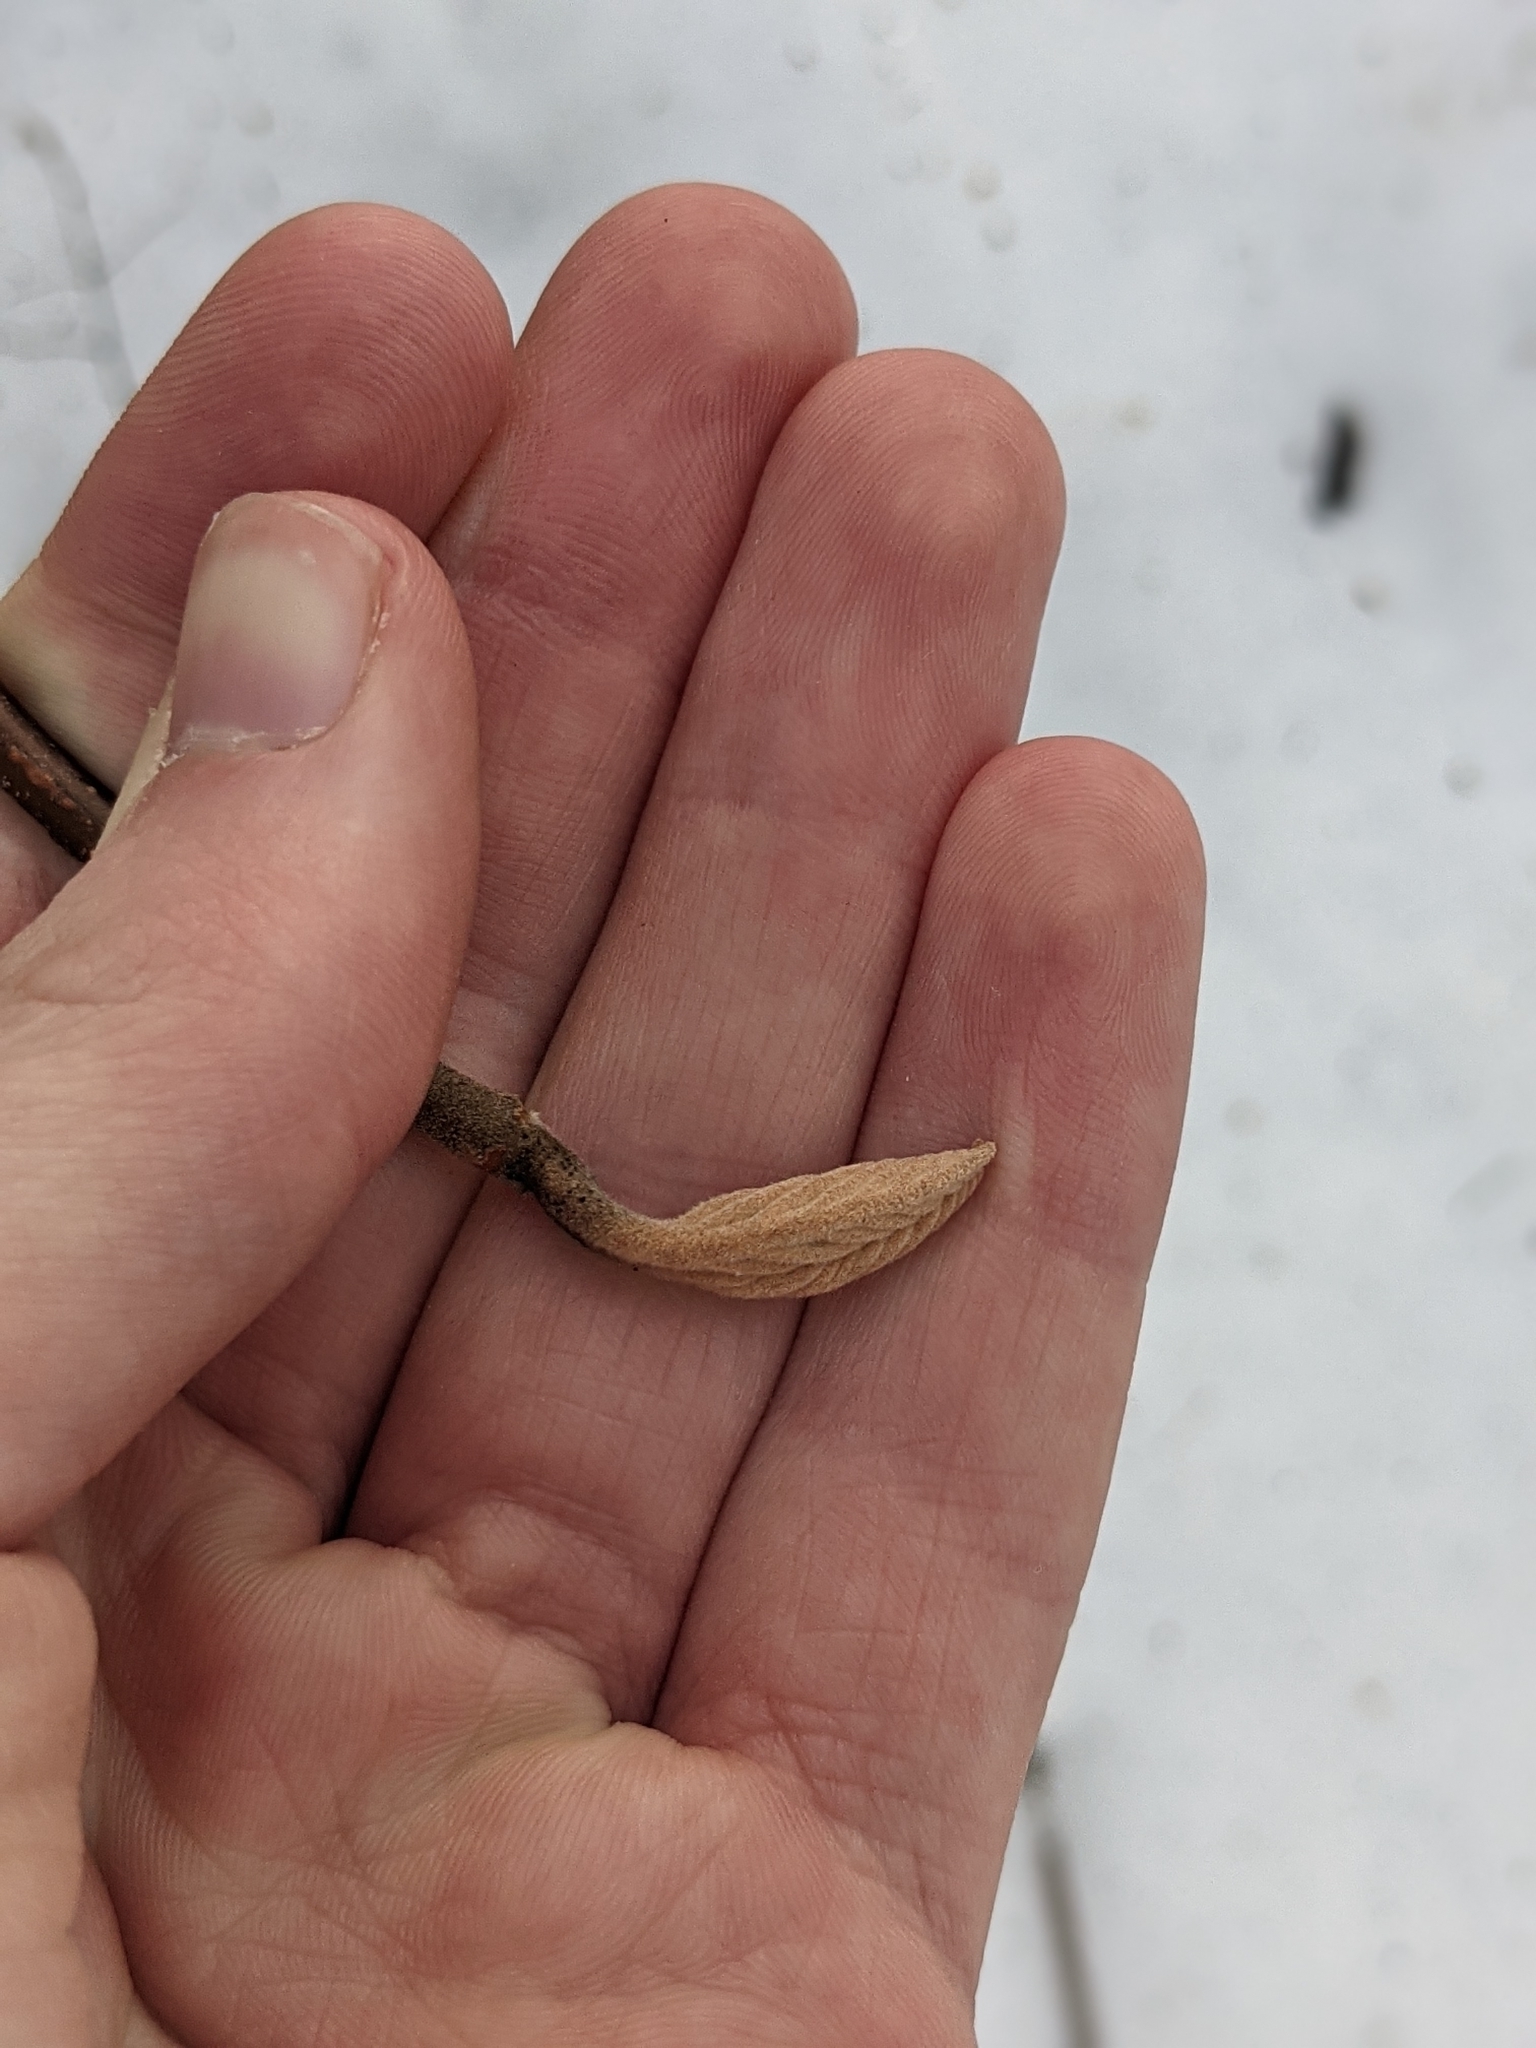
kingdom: Plantae
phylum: Tracheophyta
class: Magnoliopsida
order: Dipsacales
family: Viburnaceae
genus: Viburnum
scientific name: Viburnum lantanoides
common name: Hobblebush
